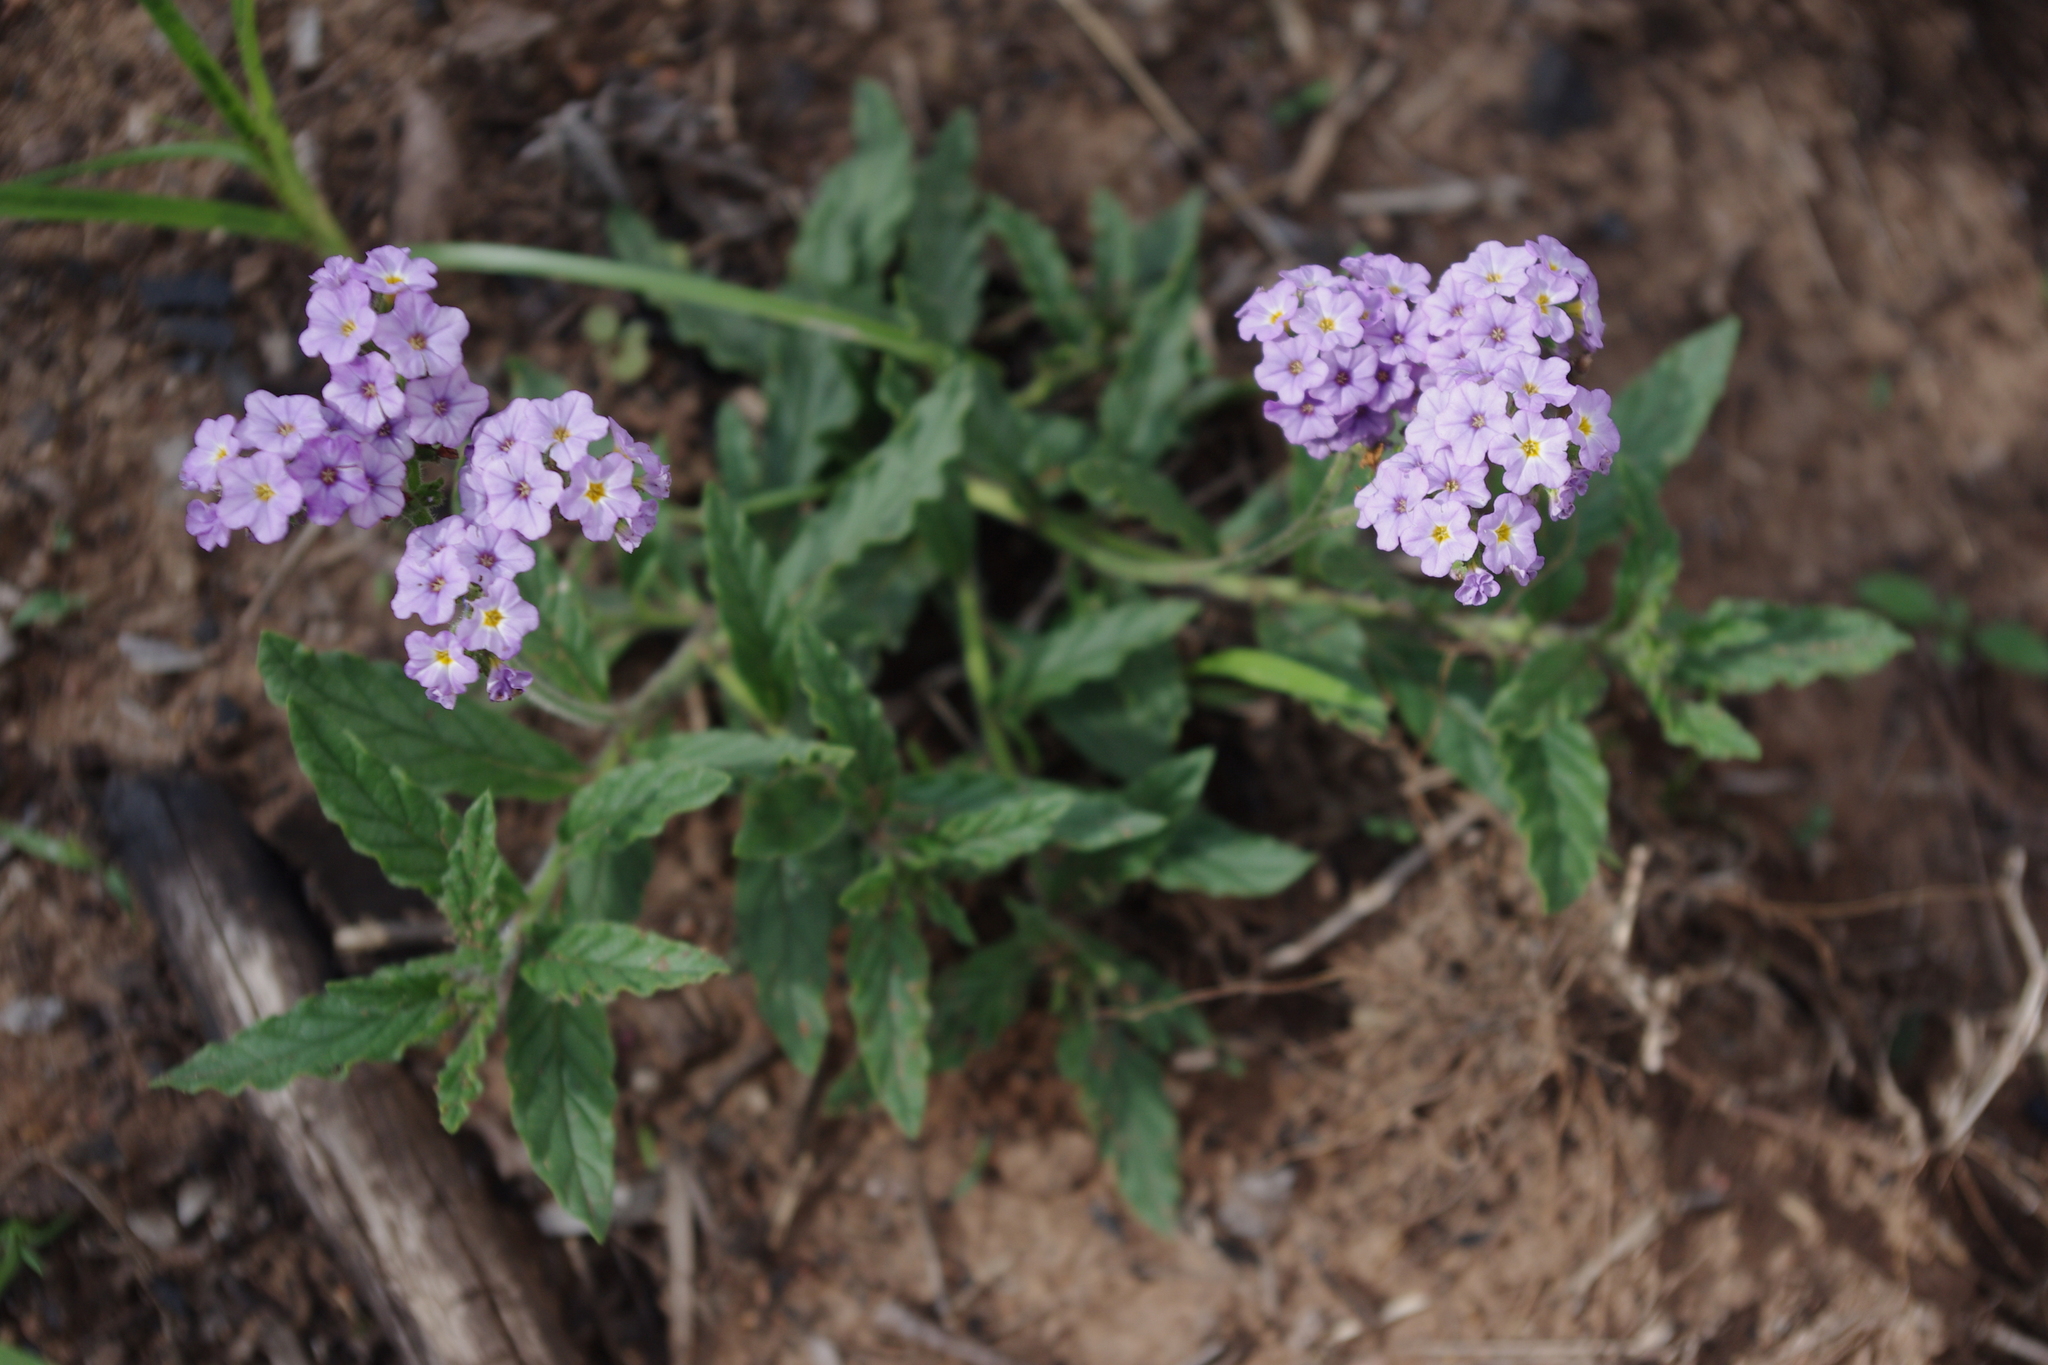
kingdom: Plantae
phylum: Tracheophyta
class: Magnoliopsida
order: Boraginales
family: Heliotropiaceae
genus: Heliotropium
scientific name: Heliotropium amplexicaule
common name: Clasping heliotrope
